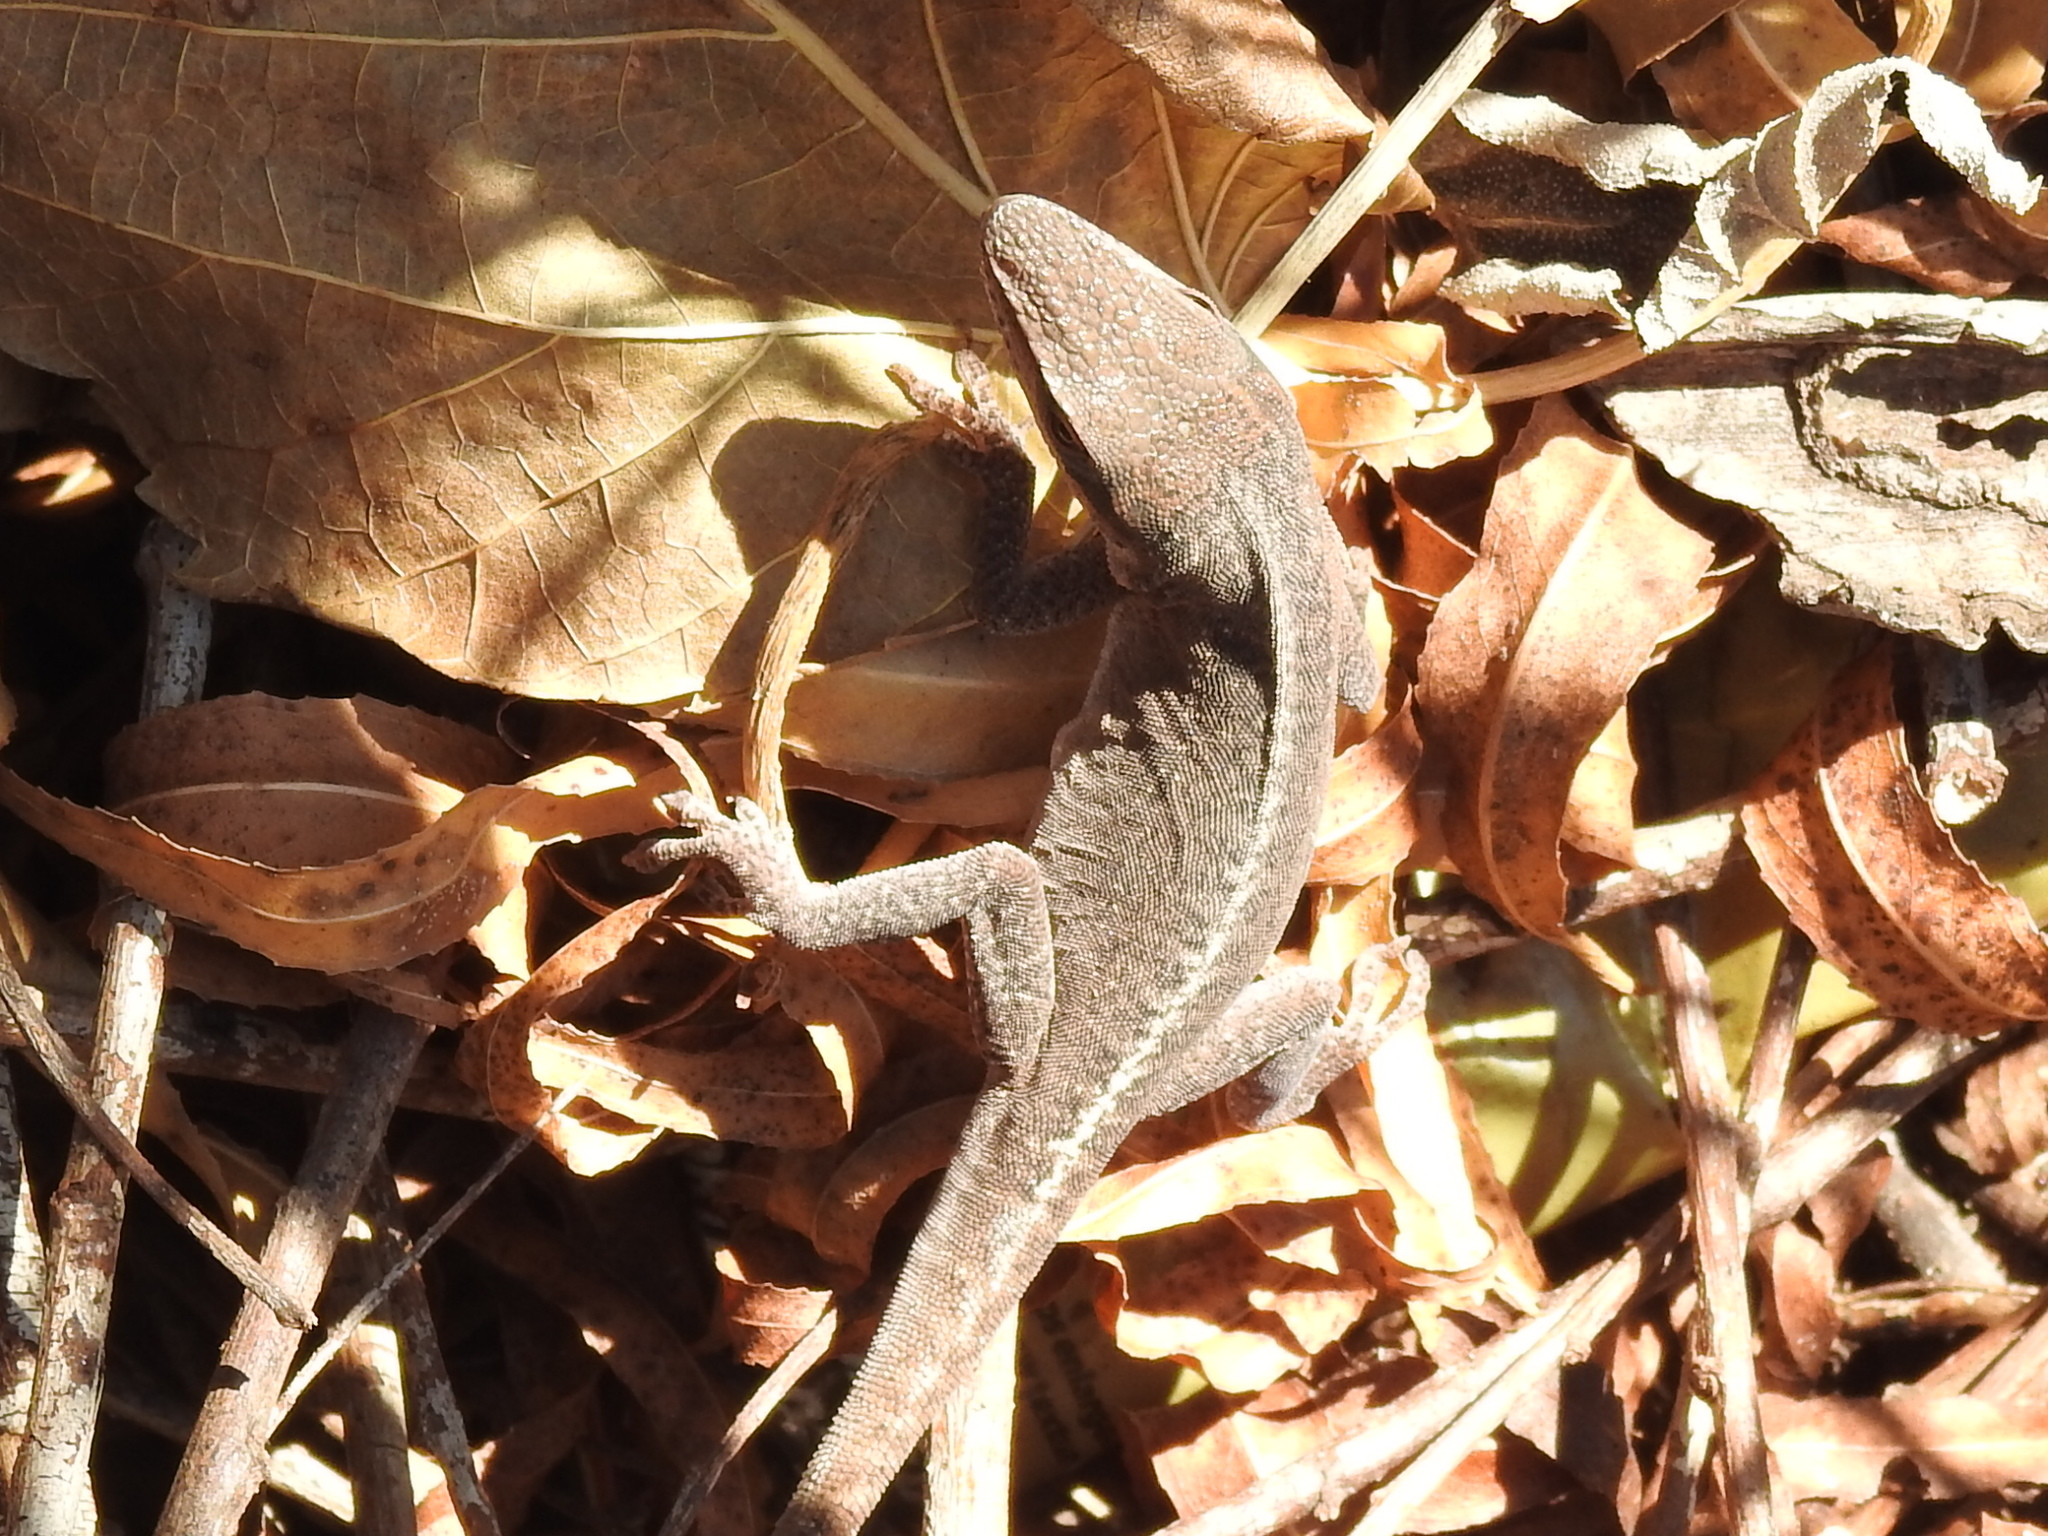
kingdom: Animalia
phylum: Chordata
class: Squamata
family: Dactyloidae
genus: Anolis
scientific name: Anolis carolinensis
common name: Green anole
